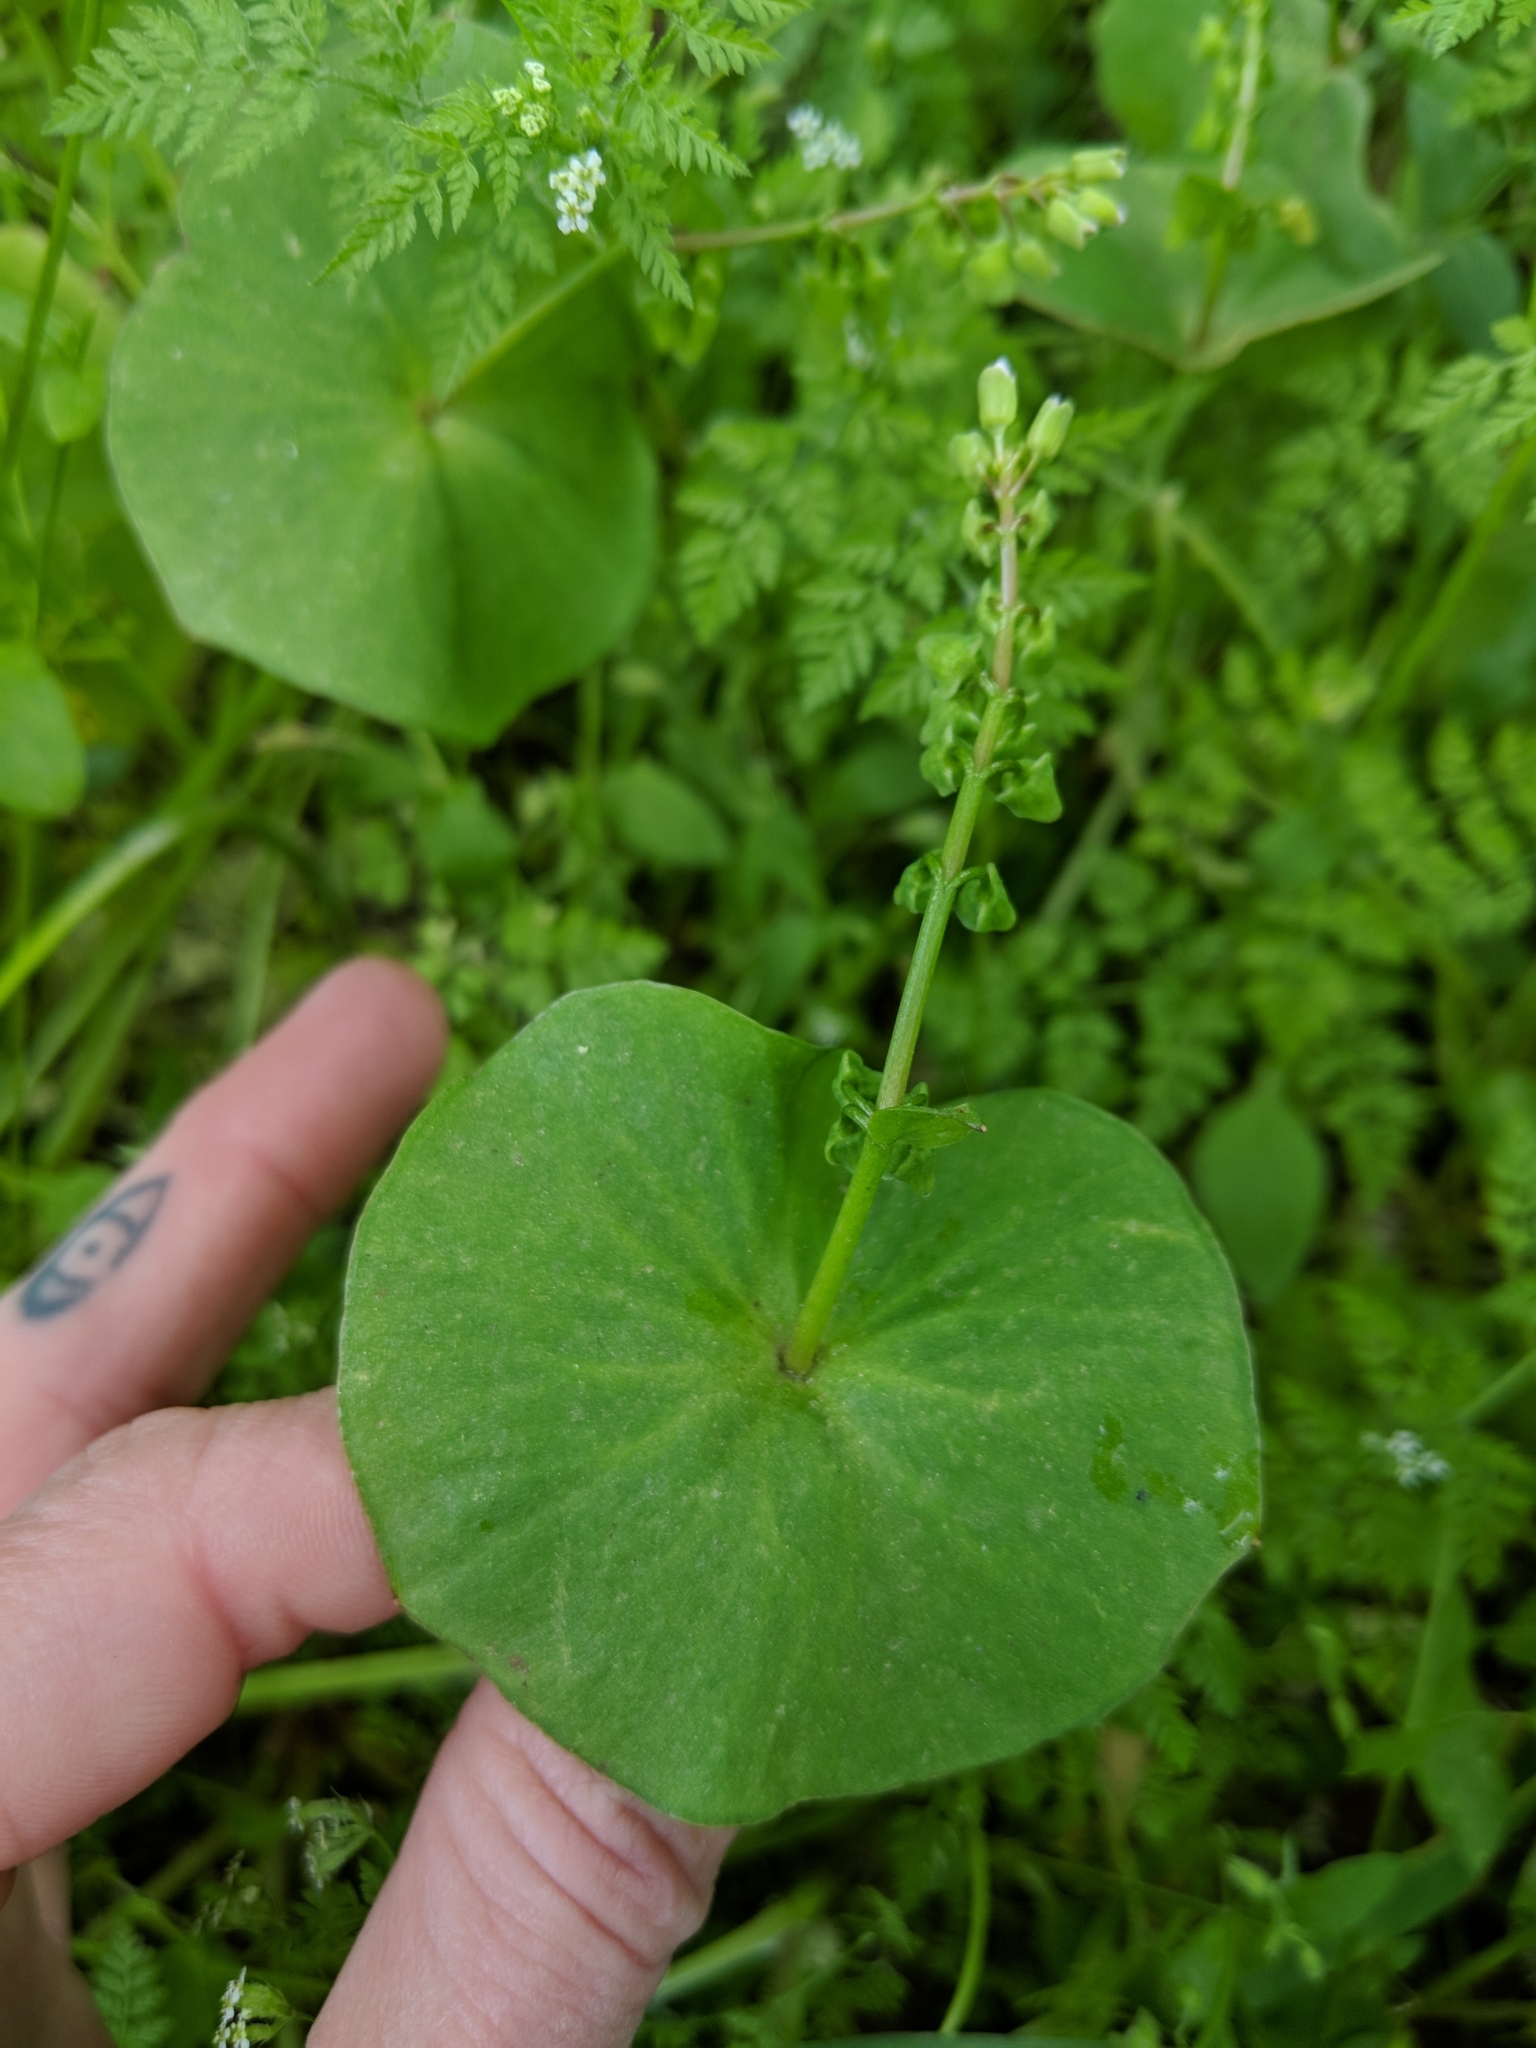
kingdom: Plantae
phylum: Tracheophyta
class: Magnoliopsida
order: Caryophyllales
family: Montiaceae
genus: Claytonia
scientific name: Claytonia perfoliata
